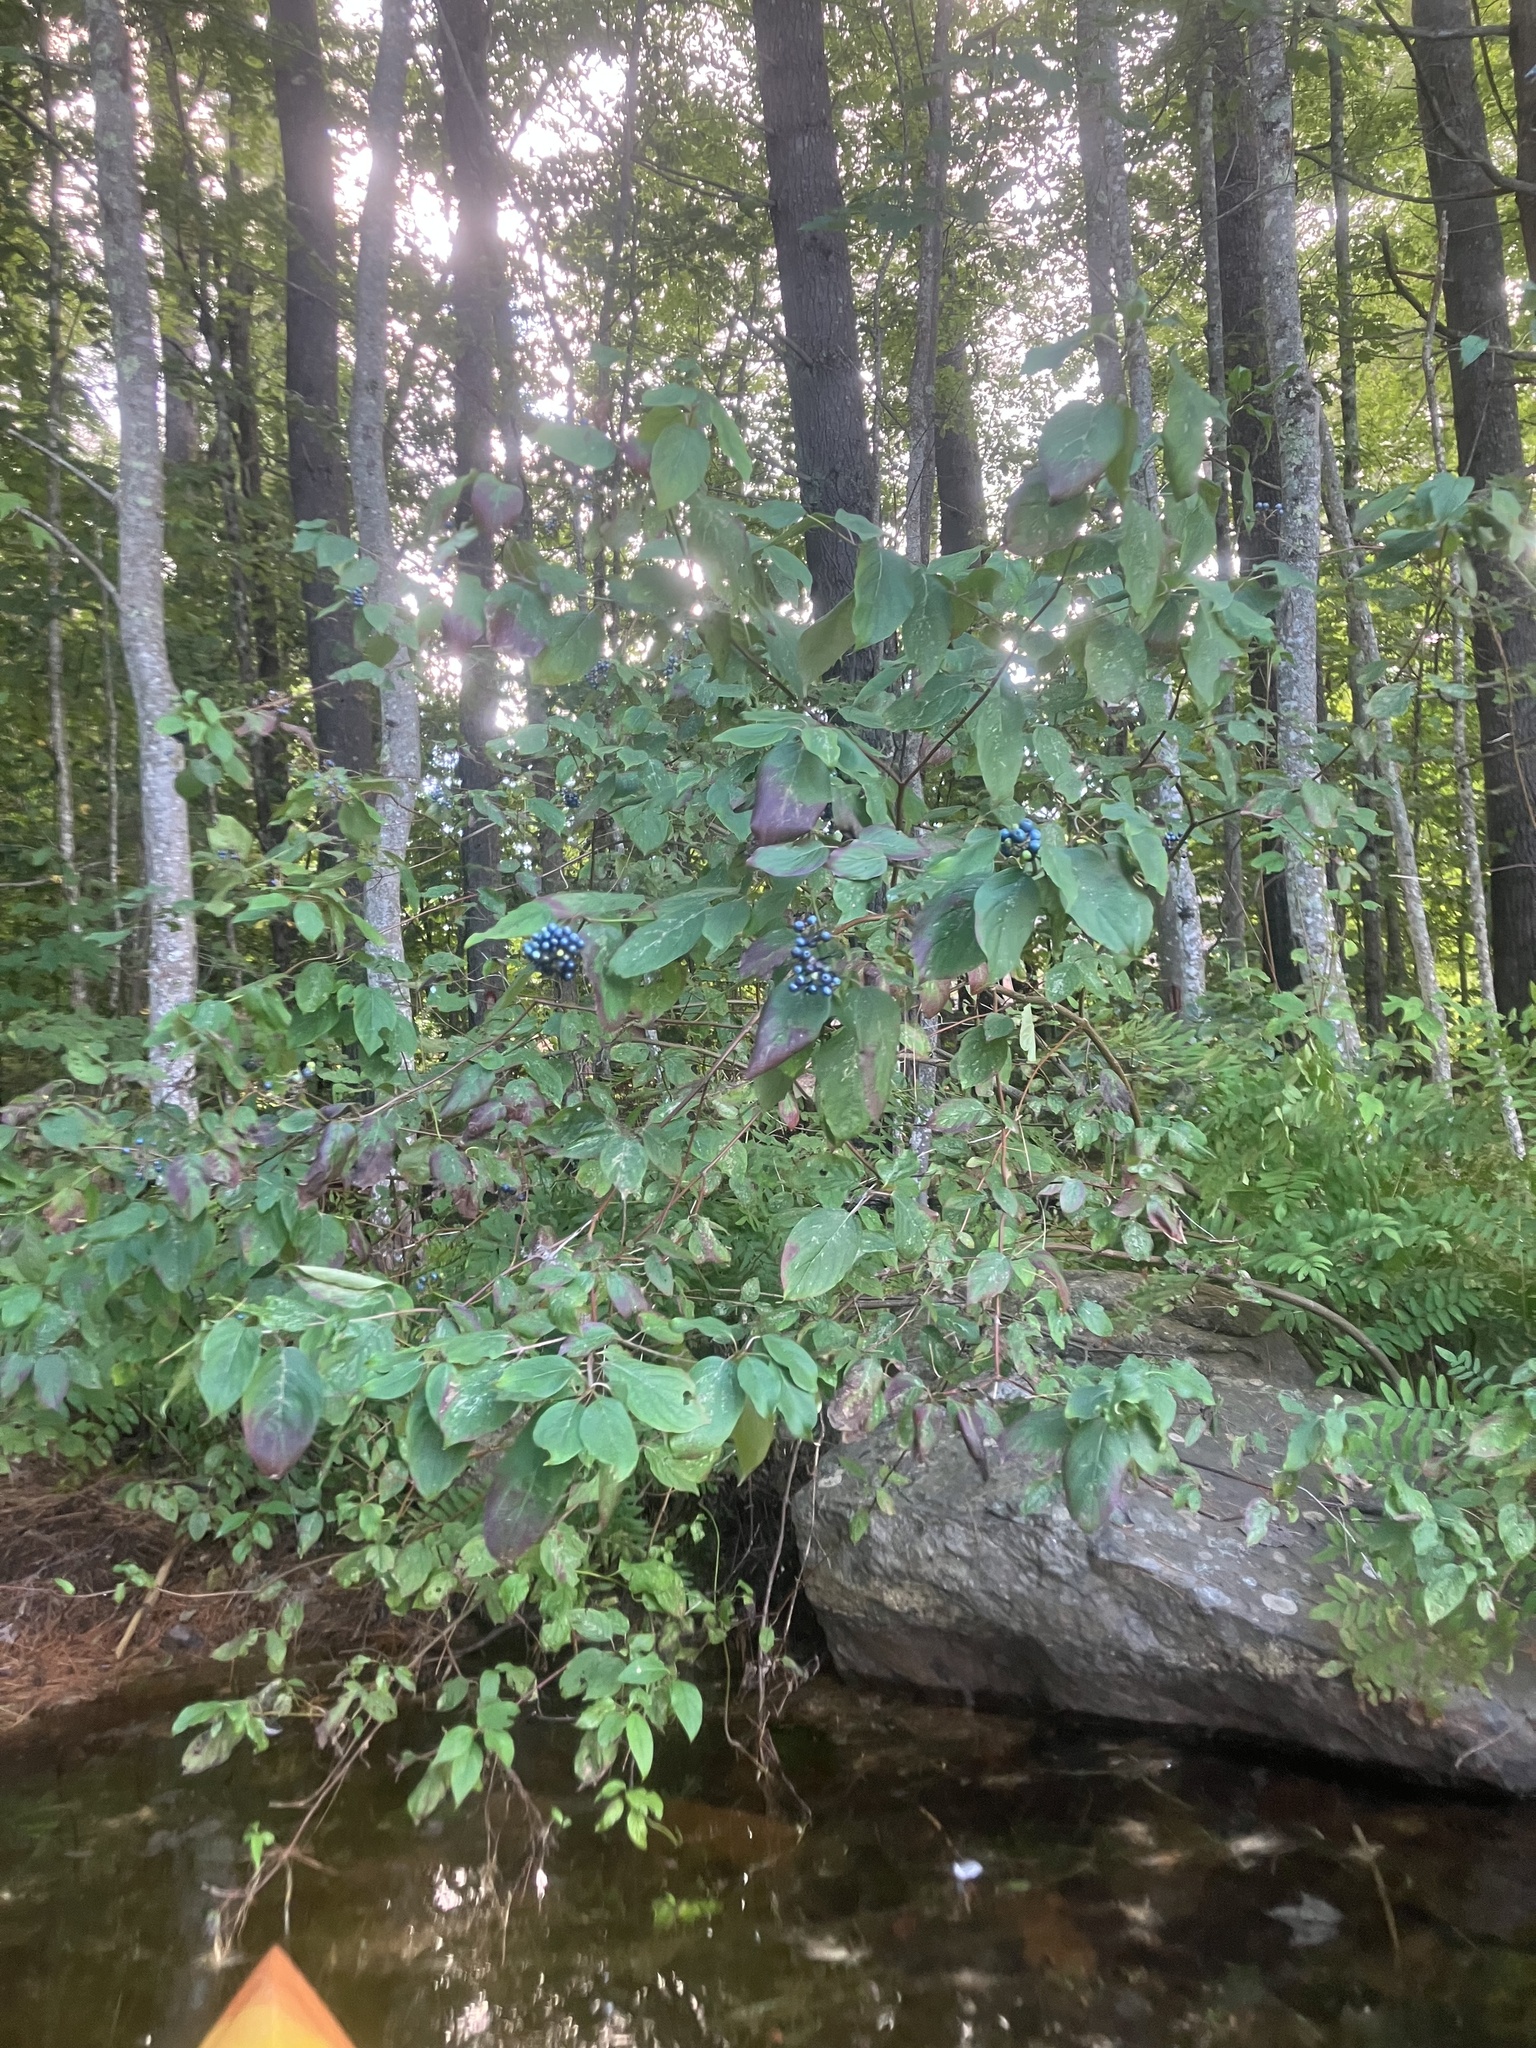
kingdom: Plantae
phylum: Tracheophyta
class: Magnoliopsida
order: Cornales
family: Cornaceae
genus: Cornus
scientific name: Cornus amomum
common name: Silky dogwood
